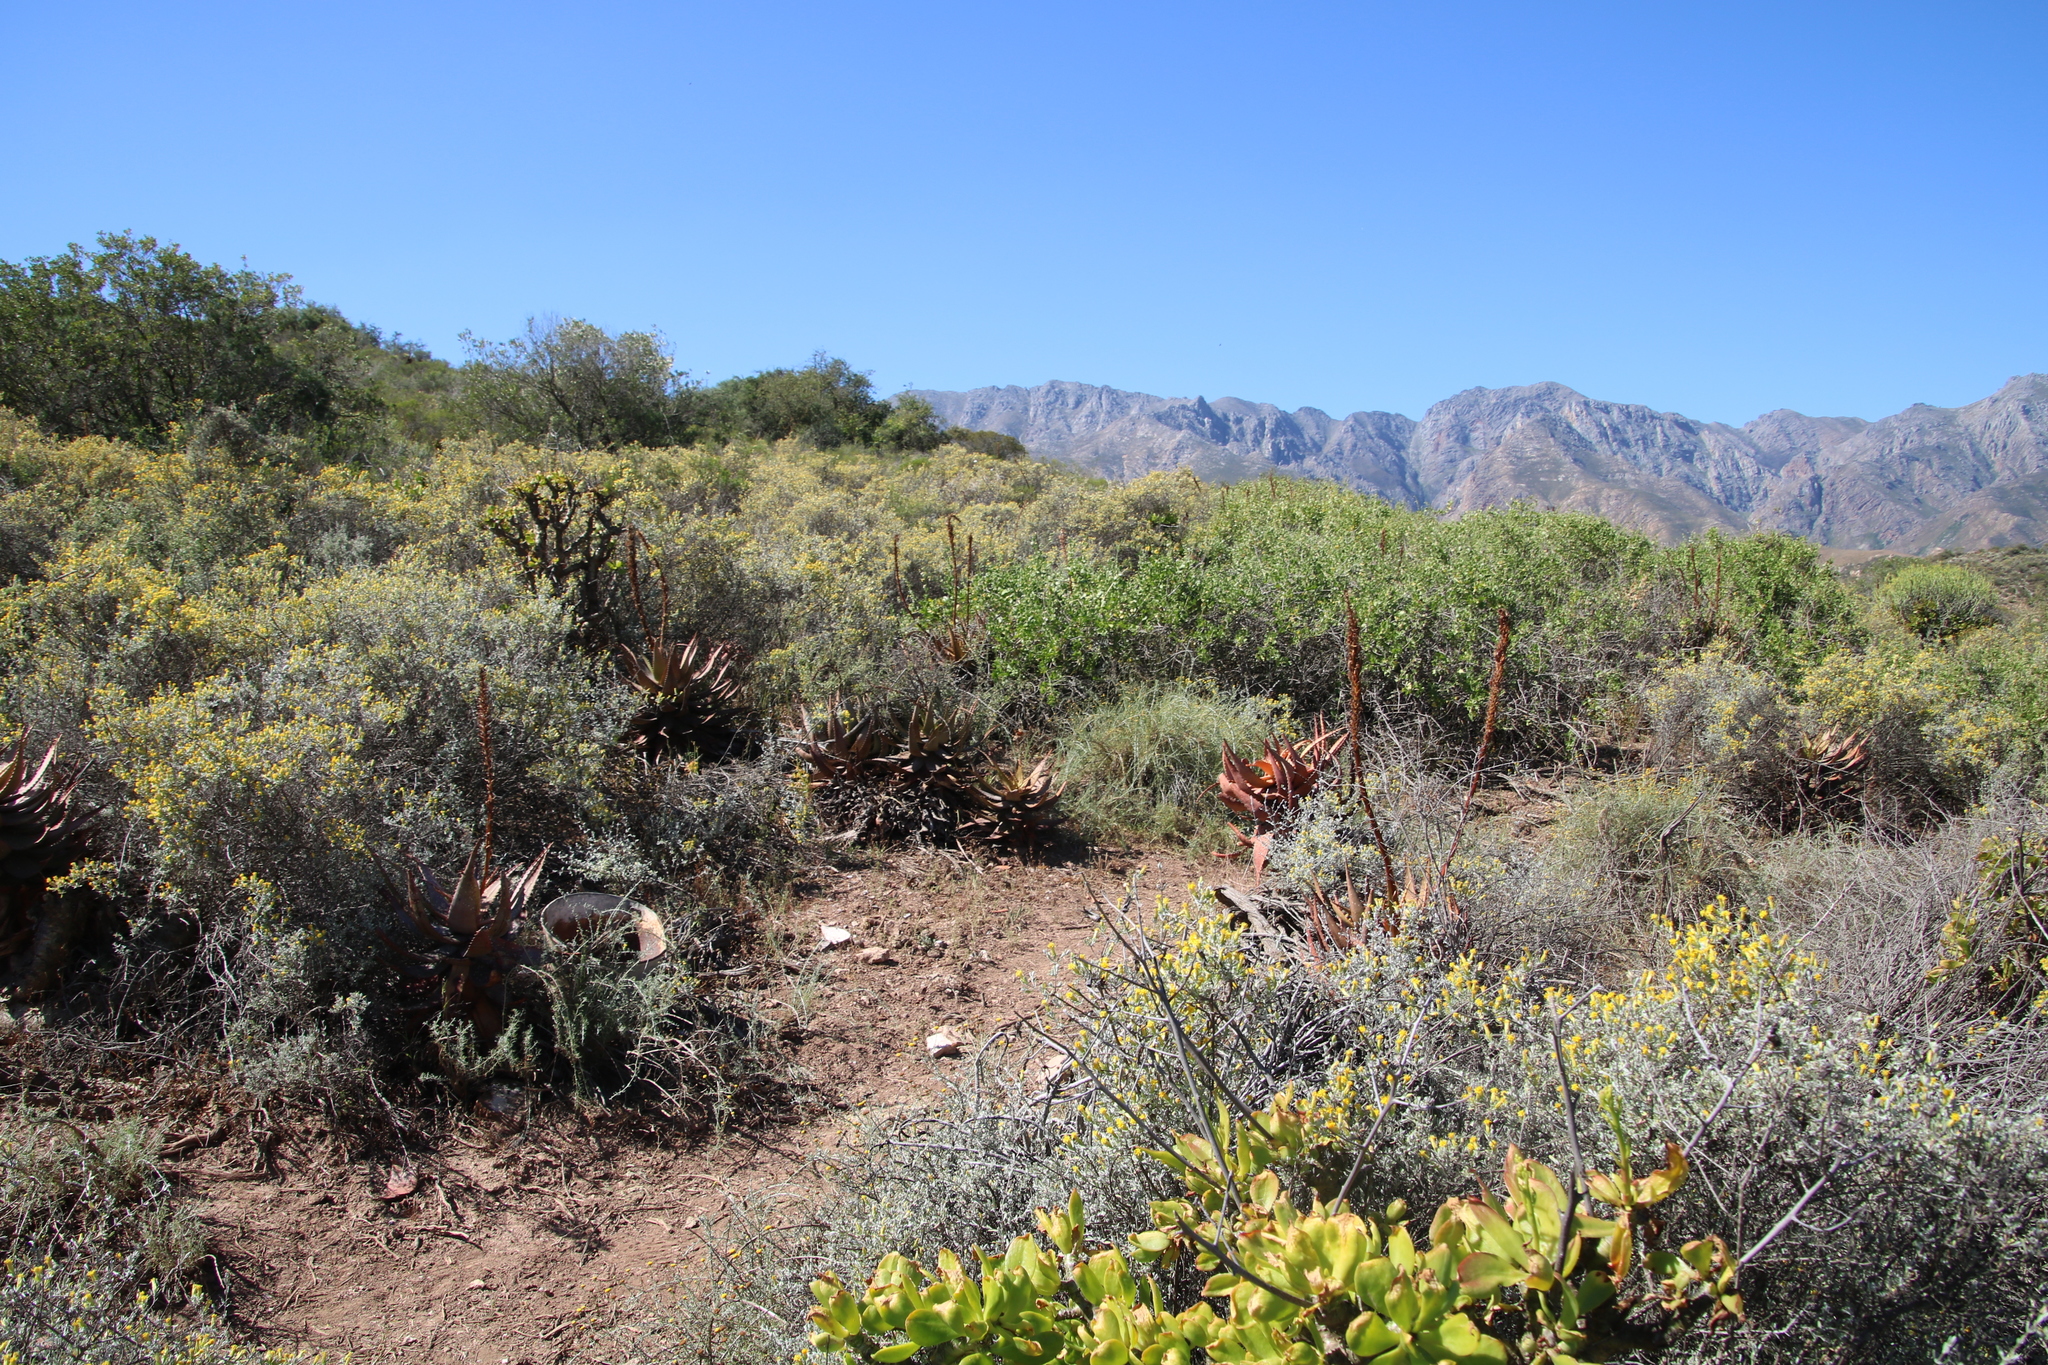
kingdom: Plantae
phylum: Tracheophyta
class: Liliopsida
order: Asparagales
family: Asphodelaceae
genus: Aloe
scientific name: Aloe microstigma
